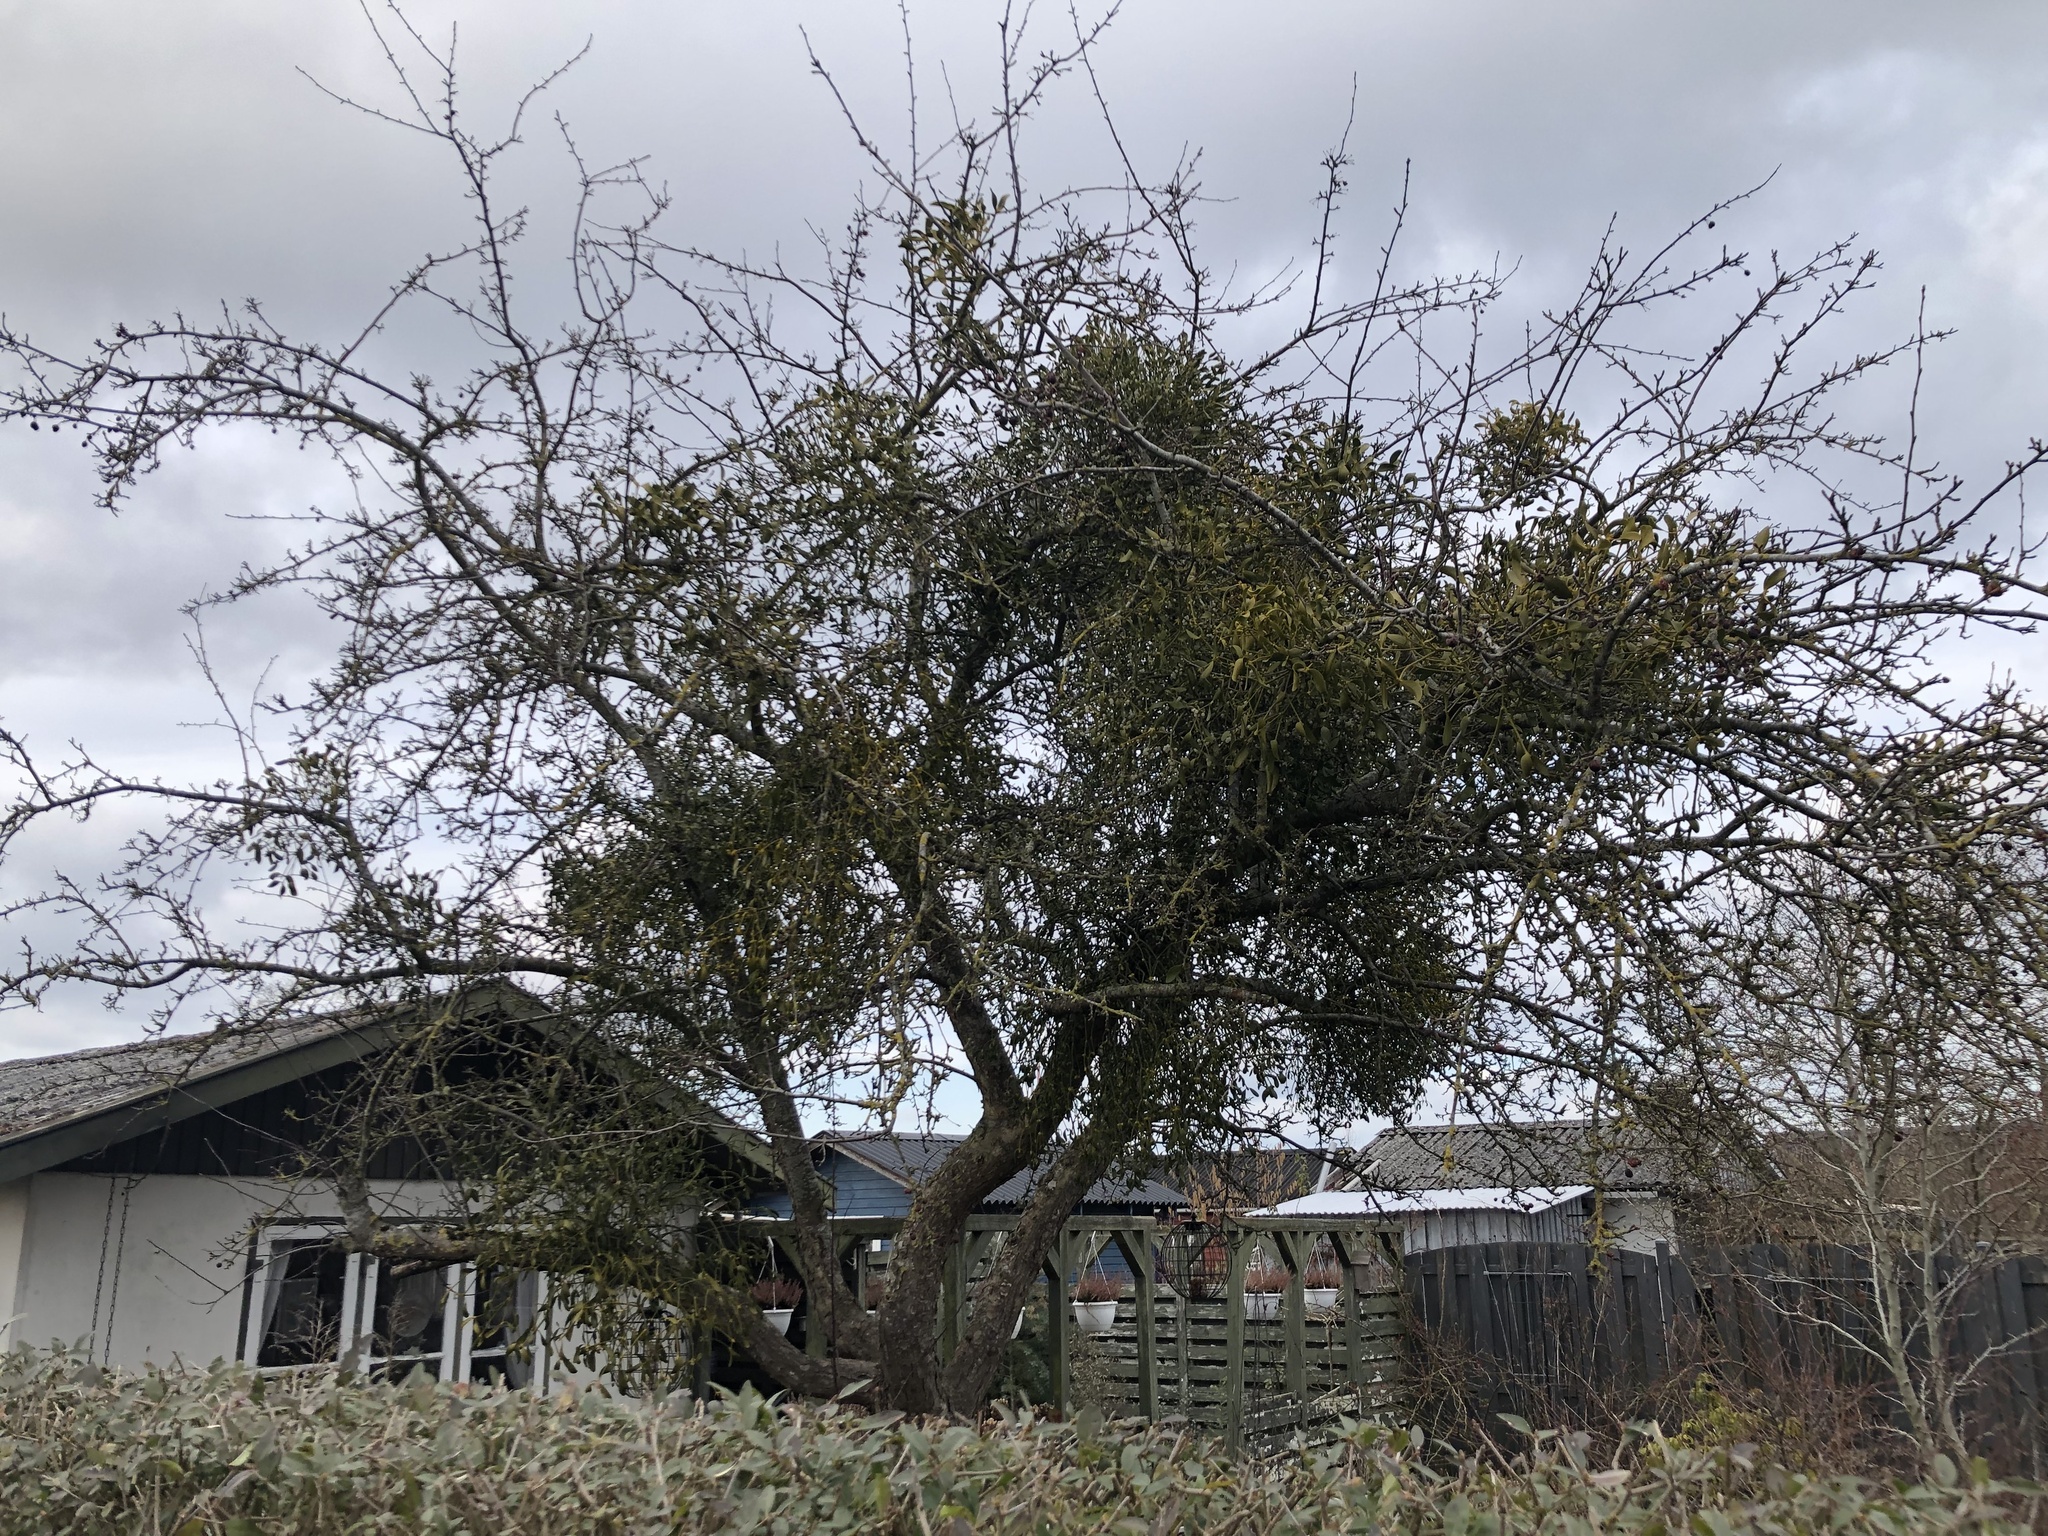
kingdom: Plantae
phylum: Tracheophyta
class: Magnoliopsida
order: Santalales
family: Viscaceae
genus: Viscum
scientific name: Viscum album
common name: Mistletoe
